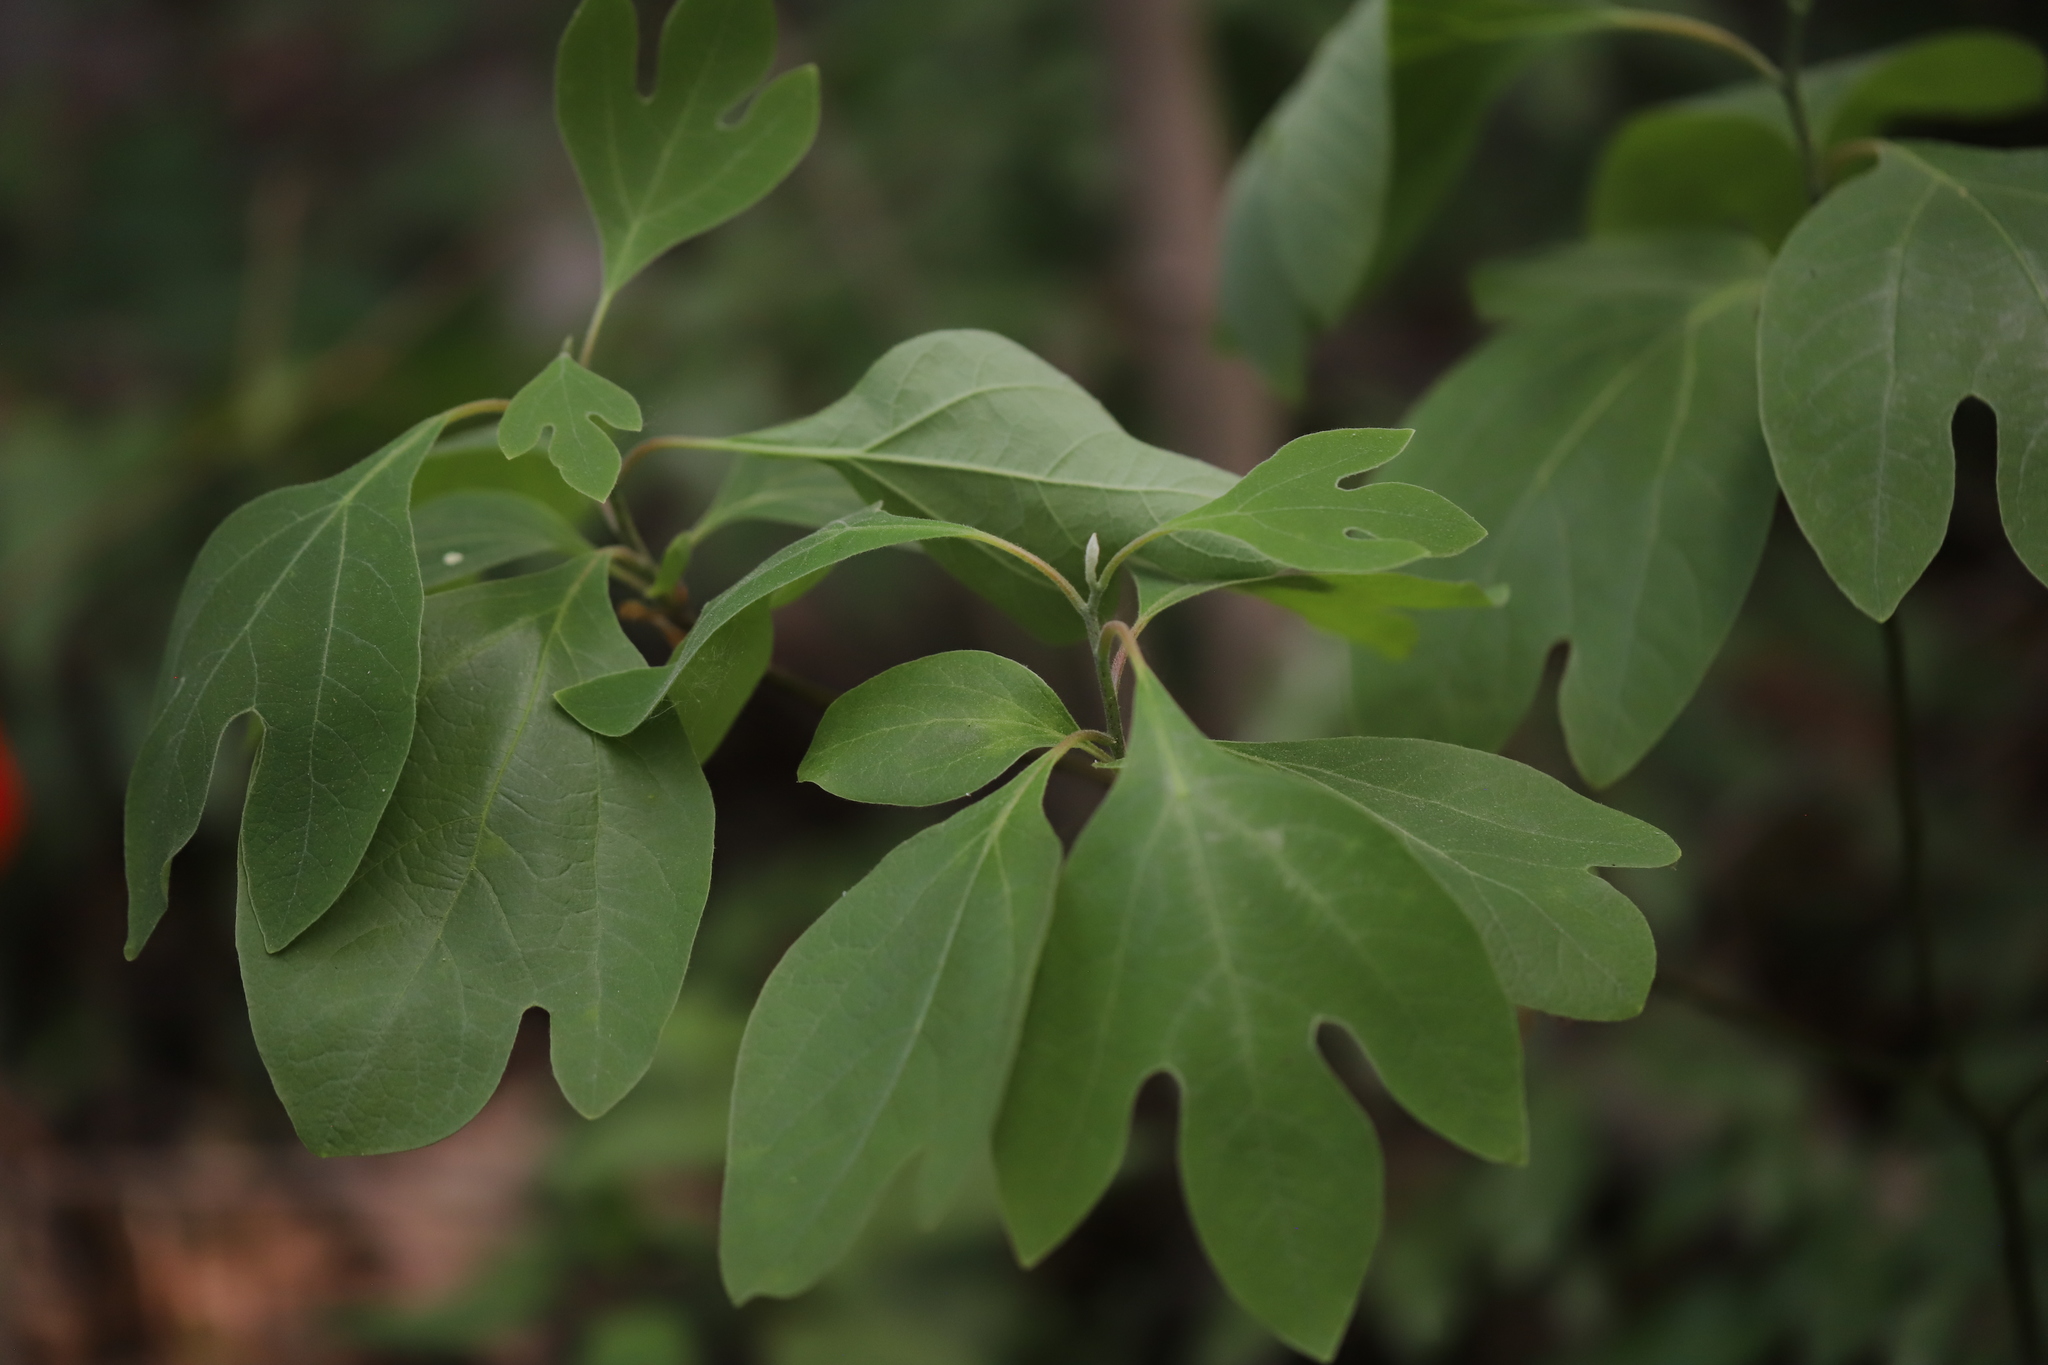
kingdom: Plantae
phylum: Tracheophyta
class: Magnoliopsida
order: Laurales
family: Lauraceae
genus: Sassafras
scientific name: Sassafras albidum
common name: Sassafras
